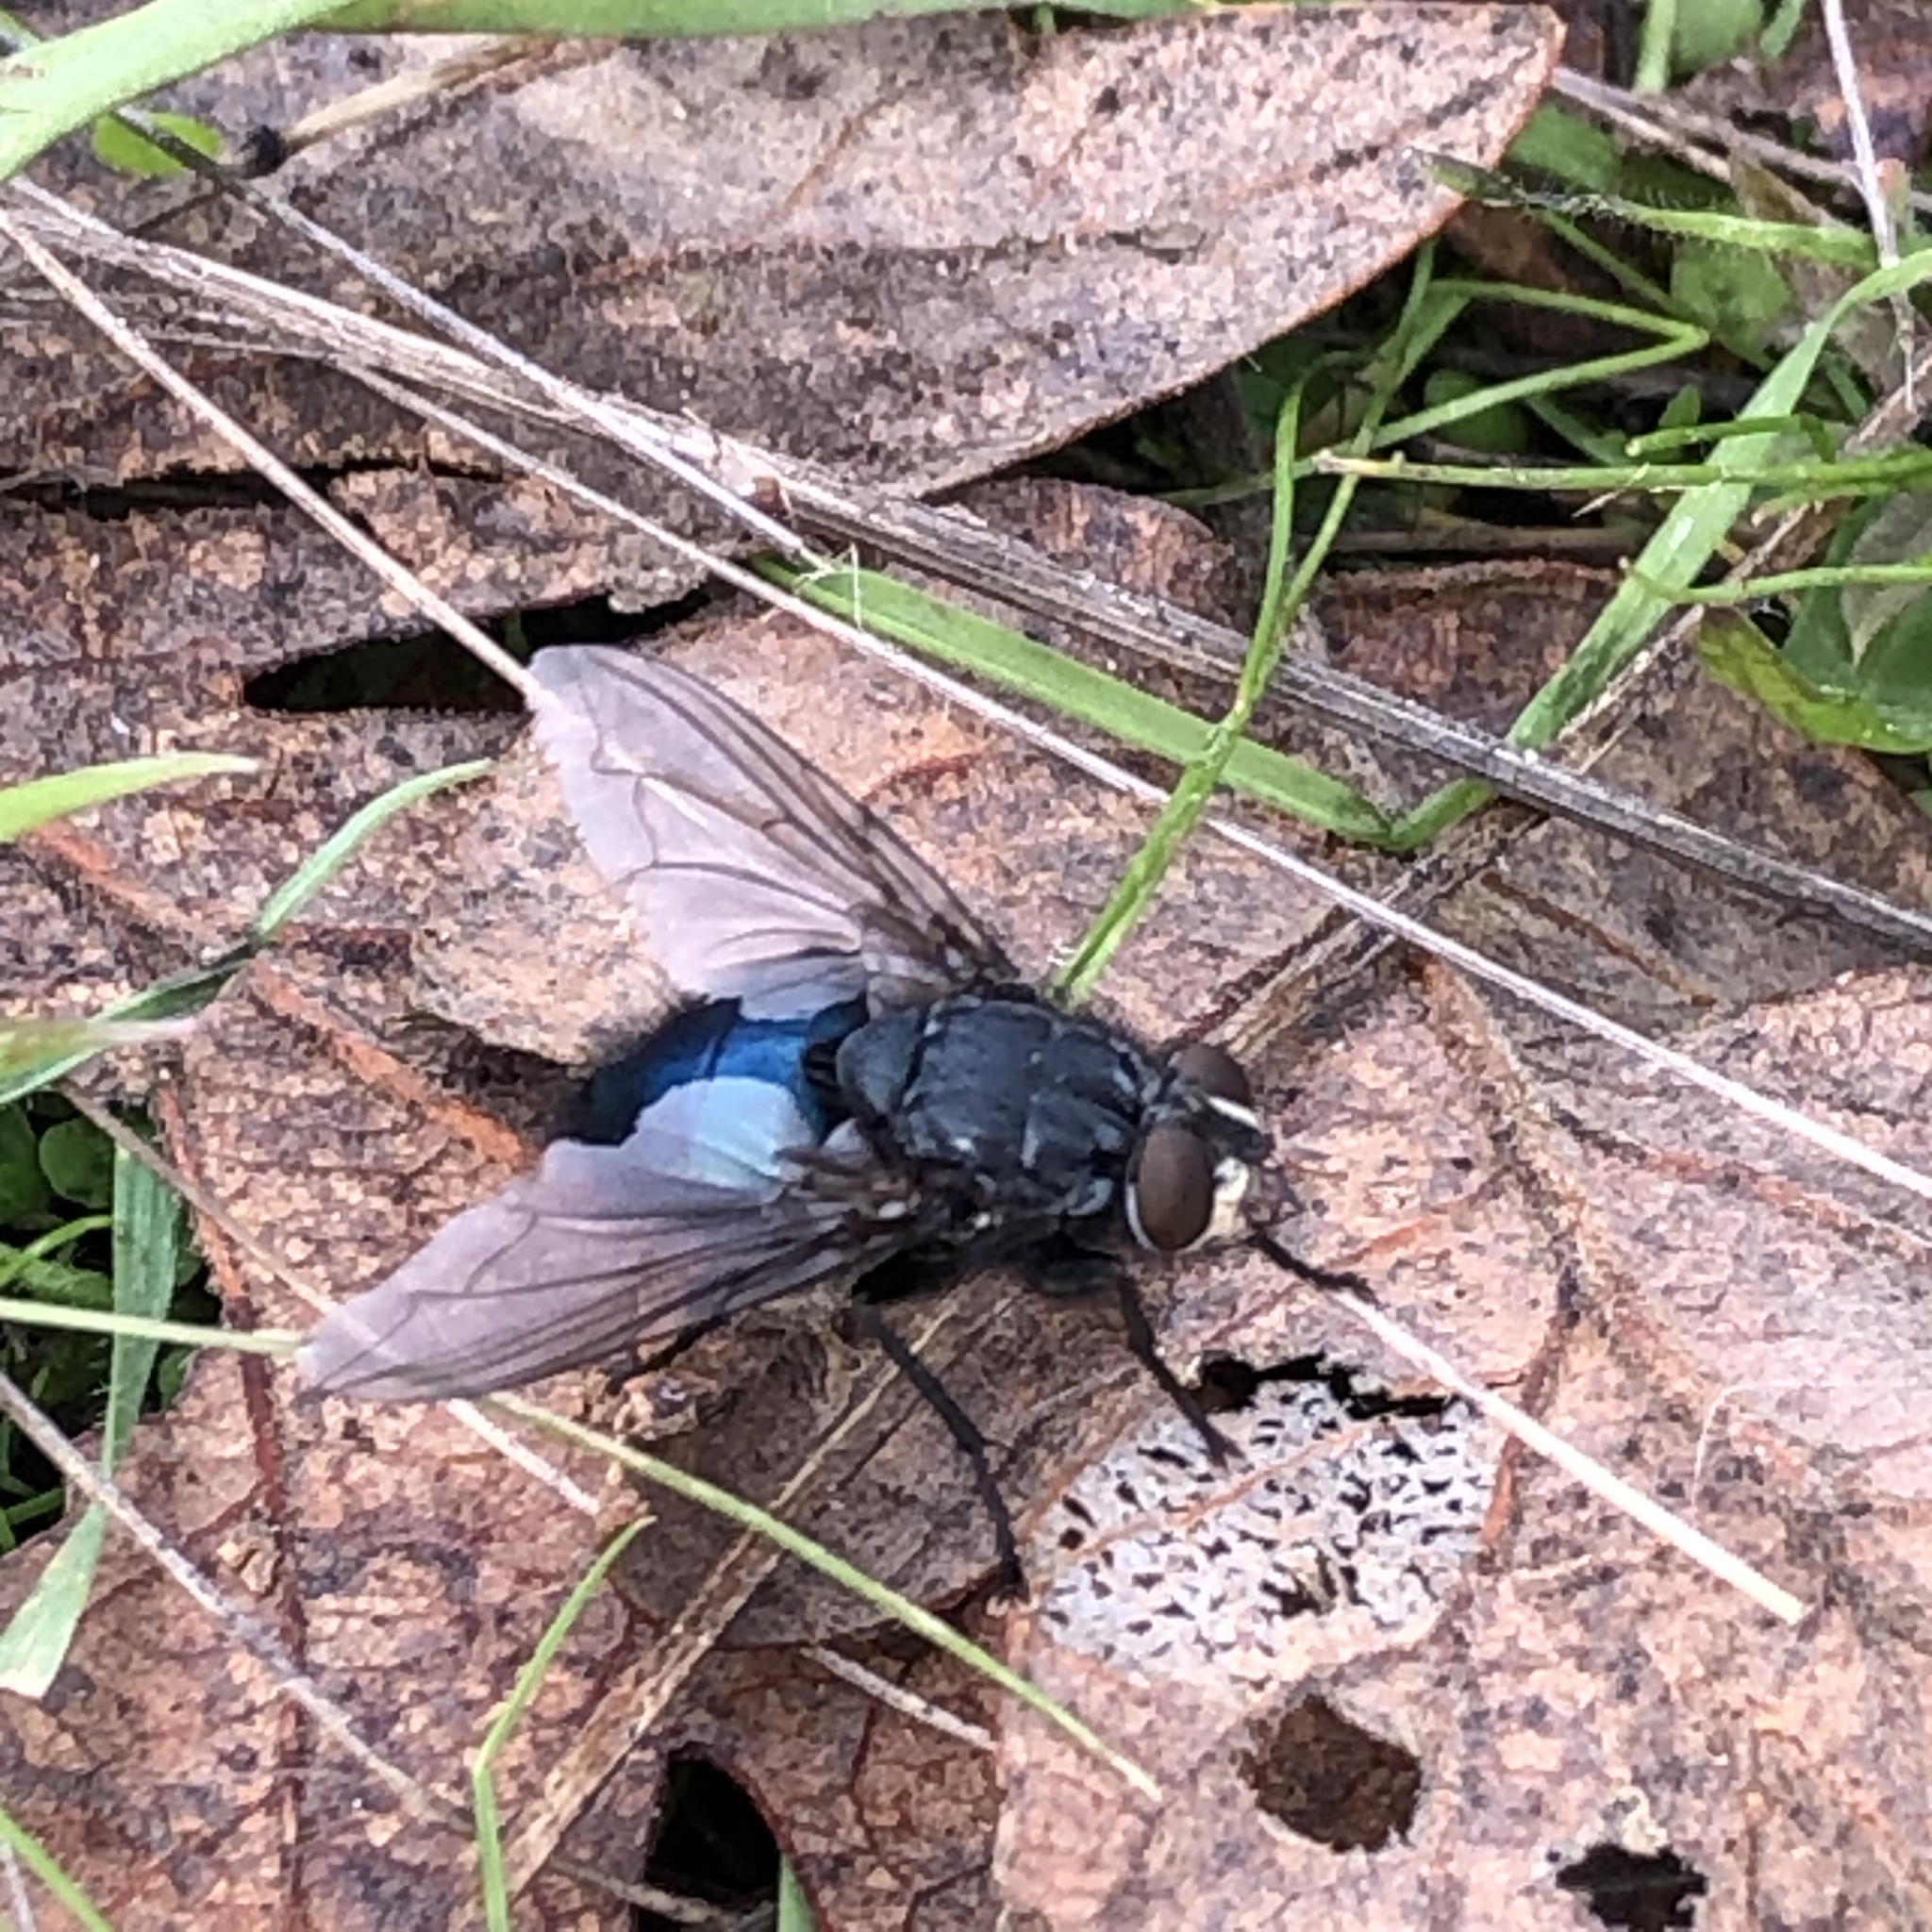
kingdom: Animalia
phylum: Arthropoda
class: Insecta
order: Diptera
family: Calliphoridae
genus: Cynomya
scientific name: Cynomya cadaverina
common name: Shiny blue bottle fly
